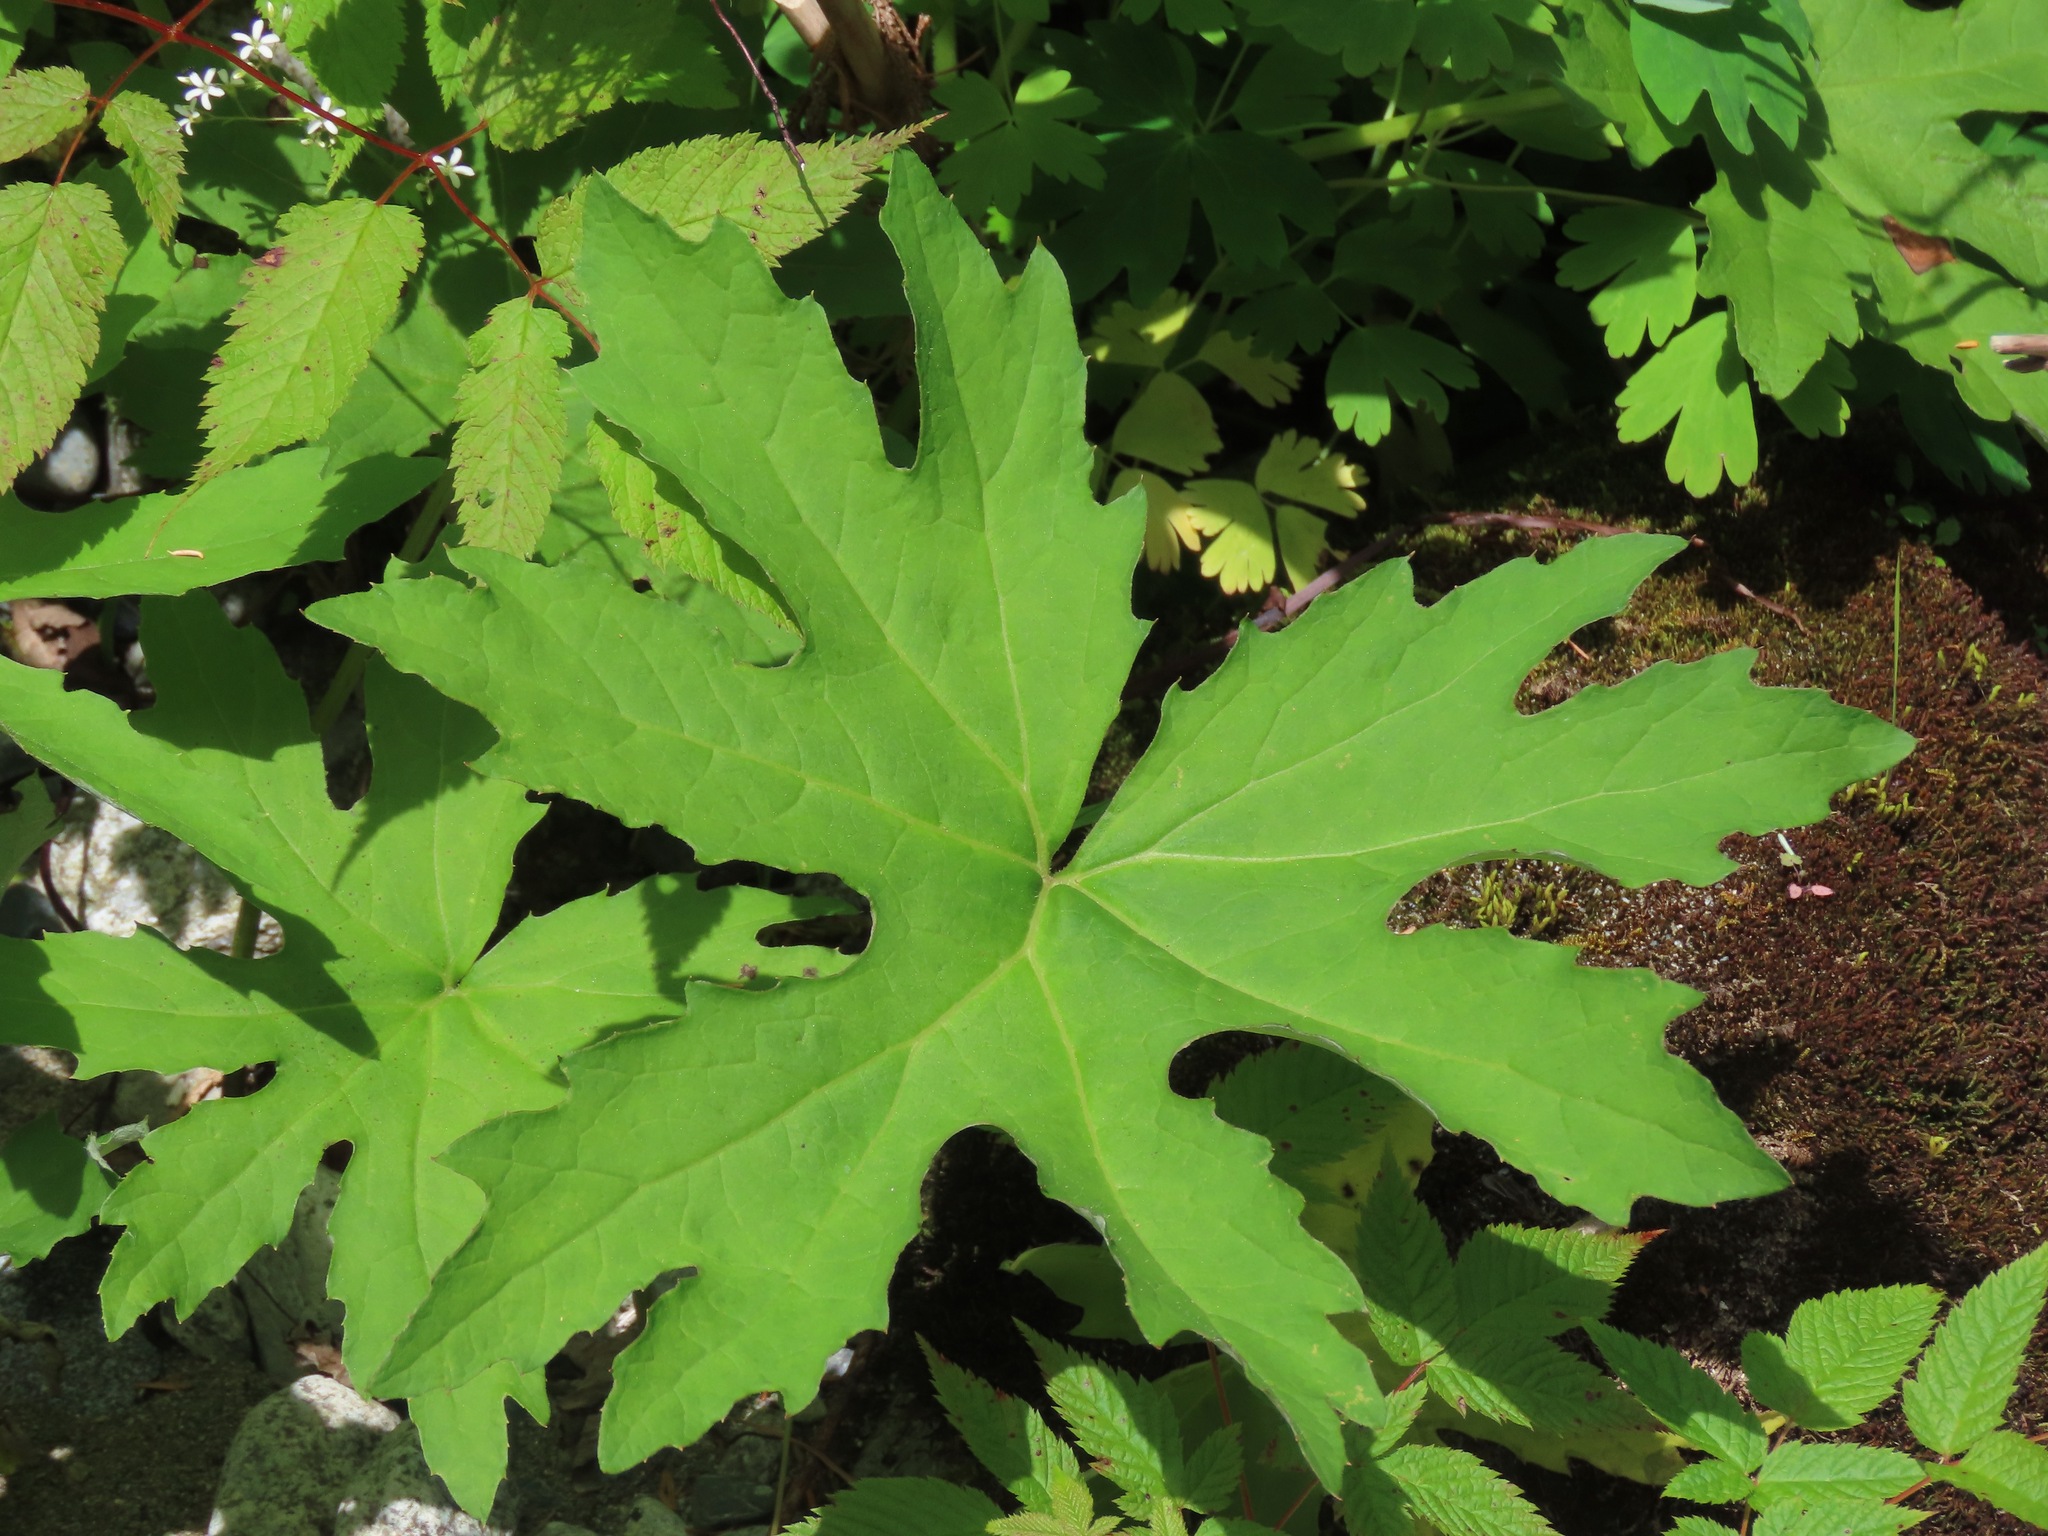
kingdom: Plantae
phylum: Tracheophyta
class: Magnoliopsida
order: Asterales
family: Asteraceae
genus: Petasites
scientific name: Petasites frigidus
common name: Arctic butterbur
